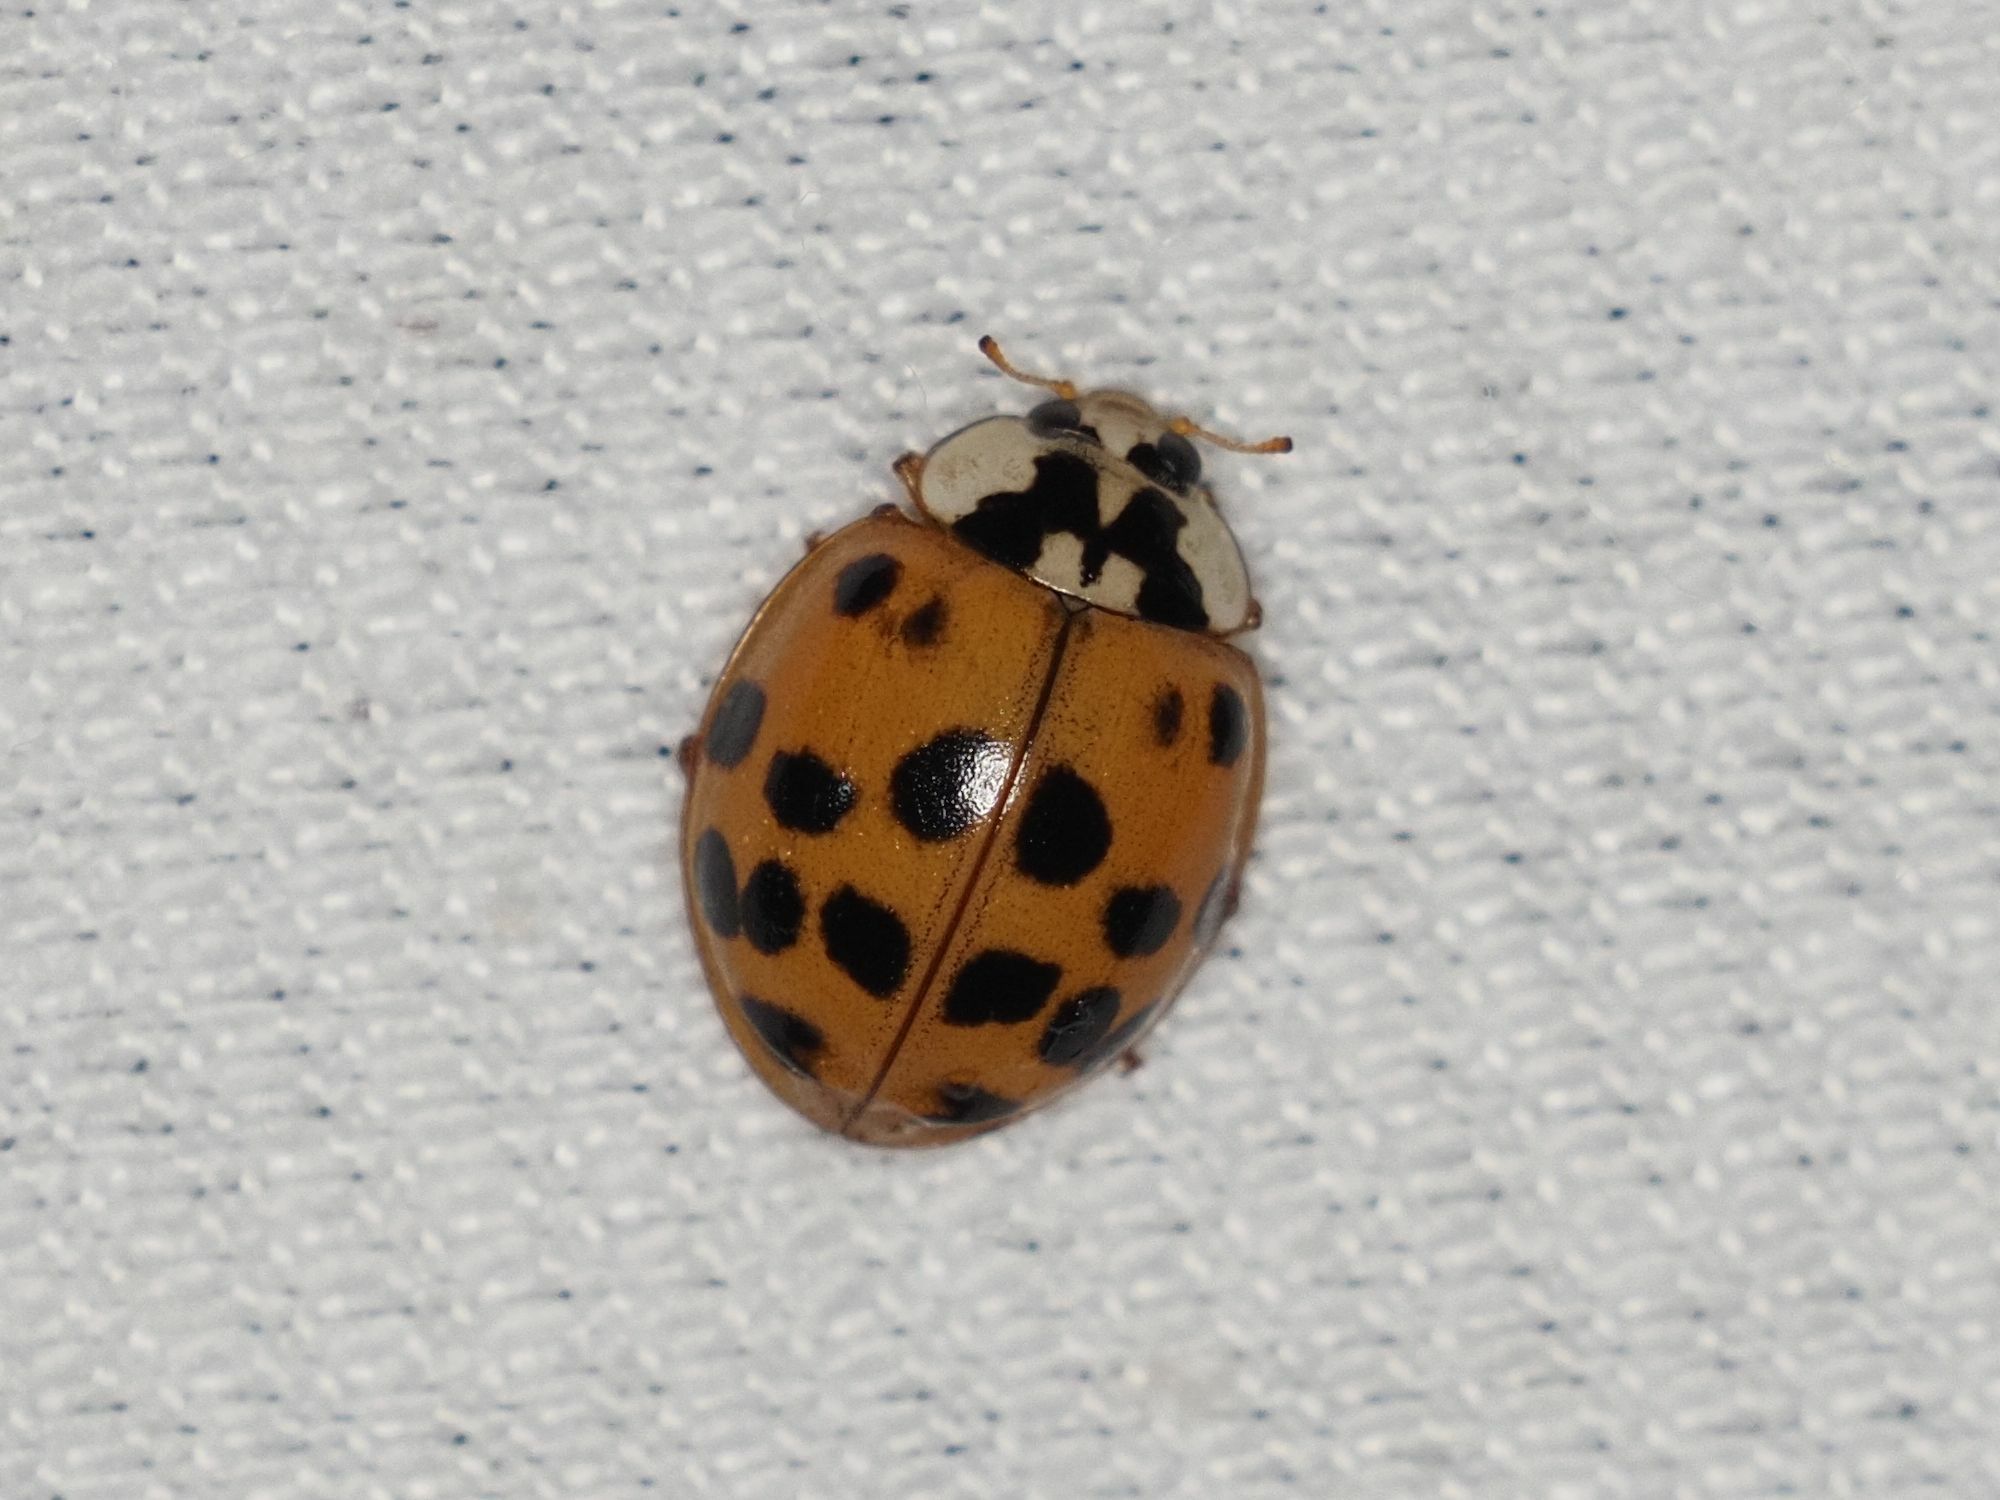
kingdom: Animalia
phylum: Arthropoda
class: Insecta
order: Coleoptera
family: Coccinellidae
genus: Harmonia
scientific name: Harmonia axyridis
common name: Harlequin ladybird
